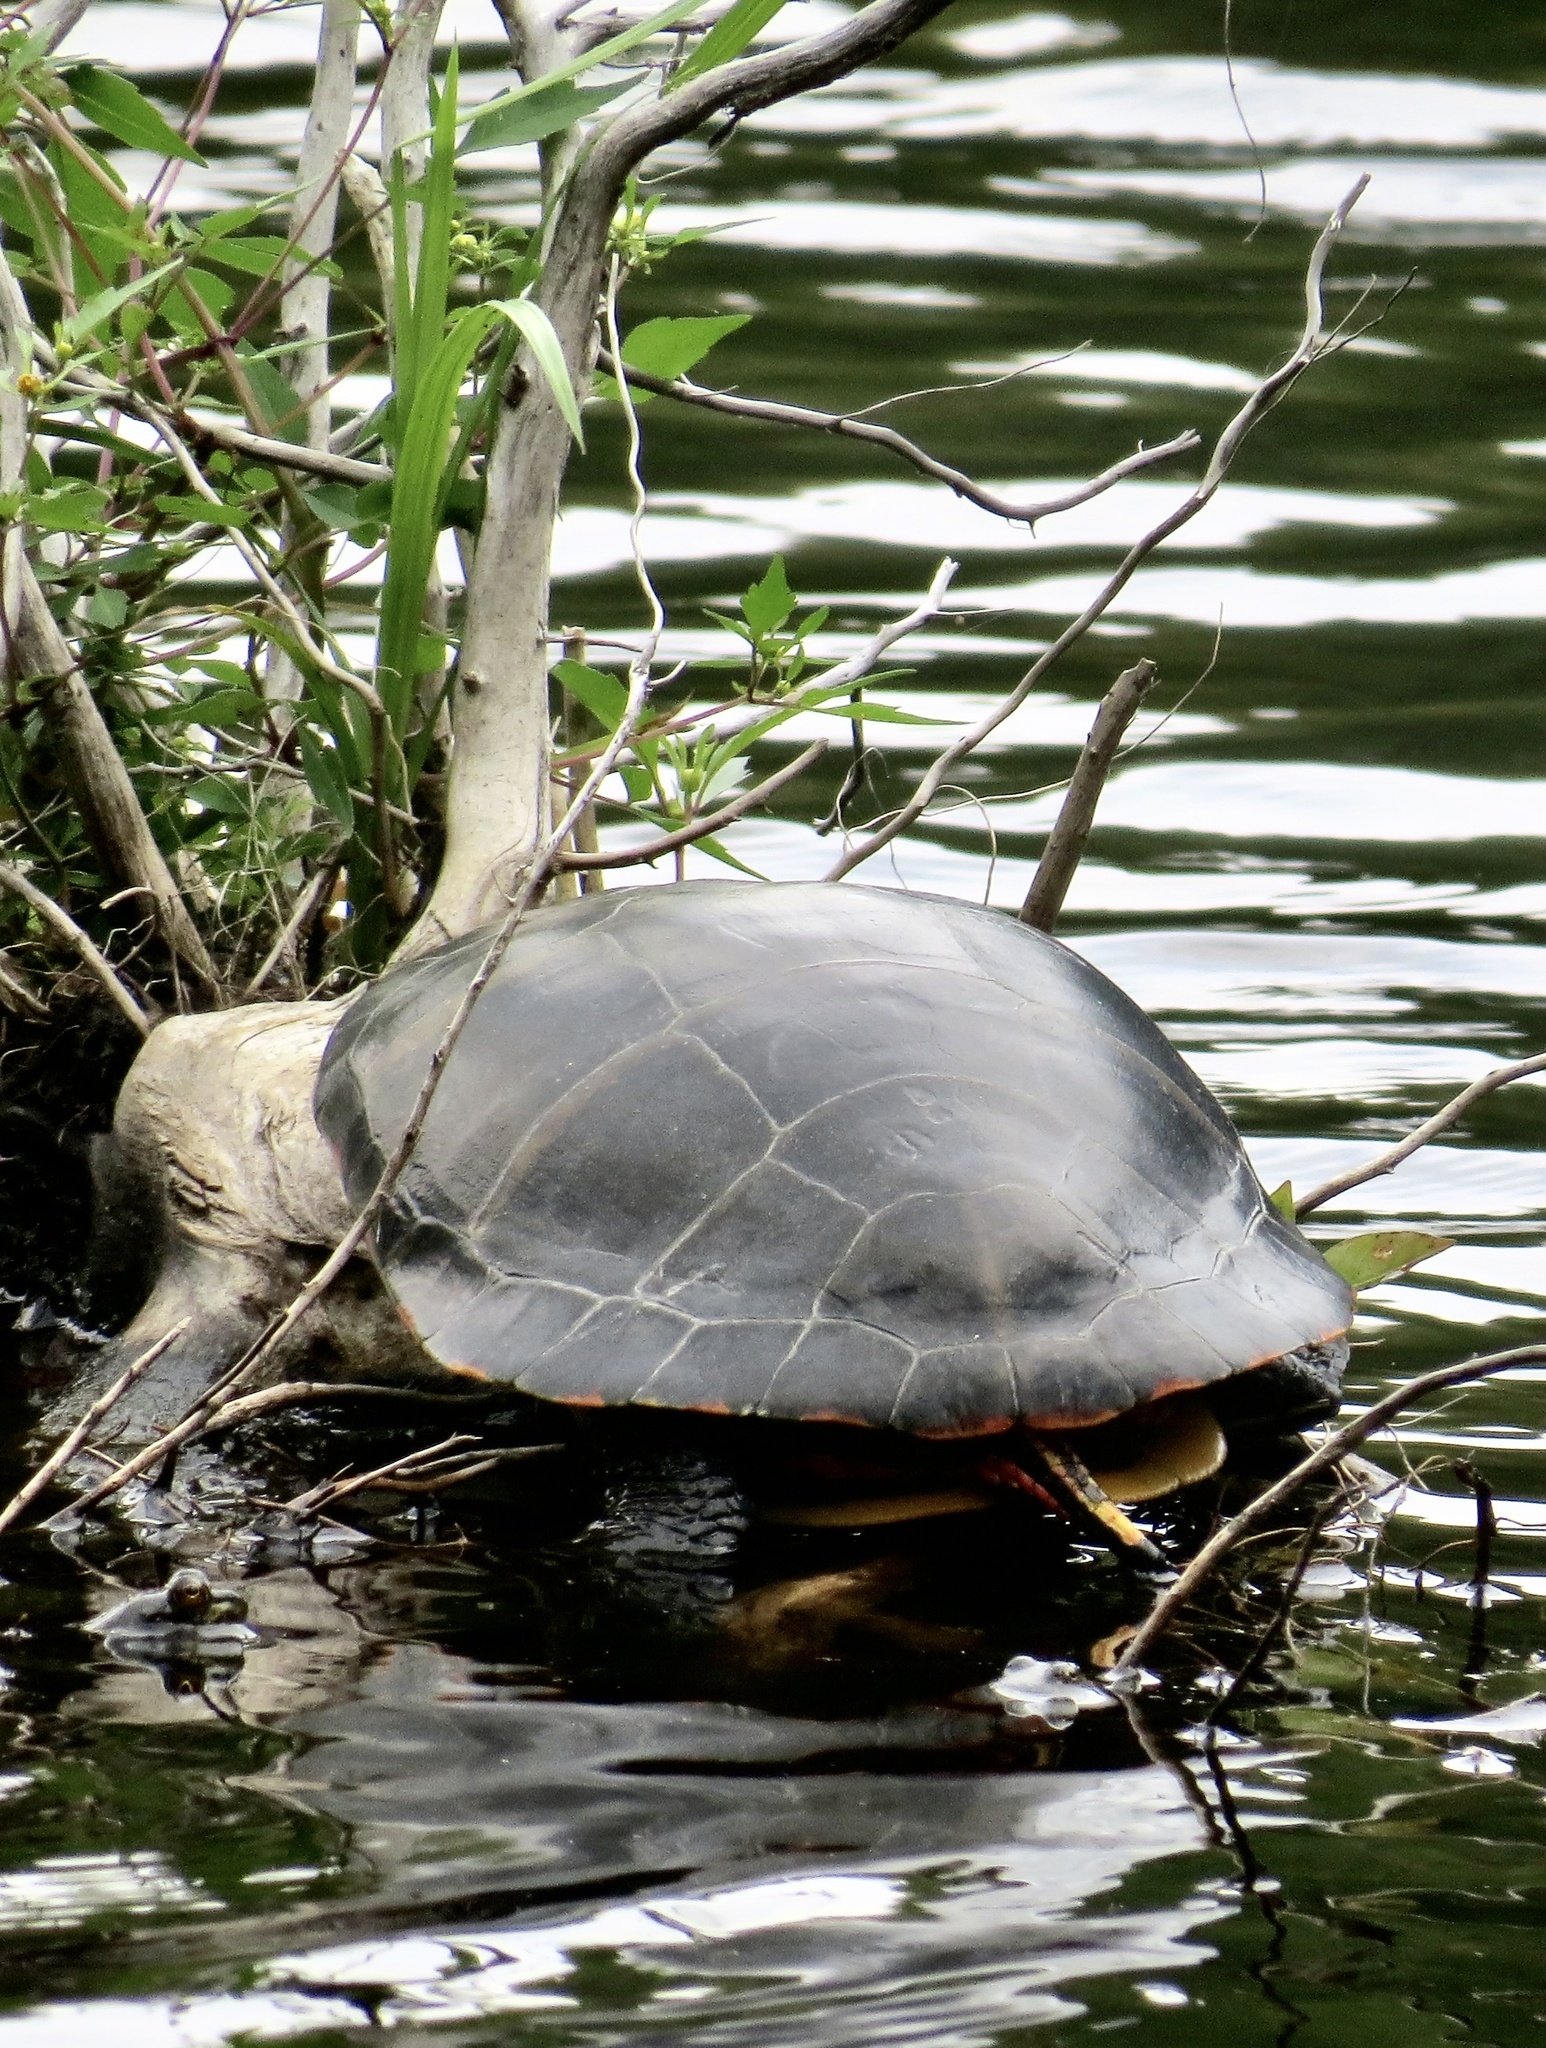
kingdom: Animalia
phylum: Chordata
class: Testudines
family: Emydidae
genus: Chrysemys
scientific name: Chrysemys picta
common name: Painted turtle
